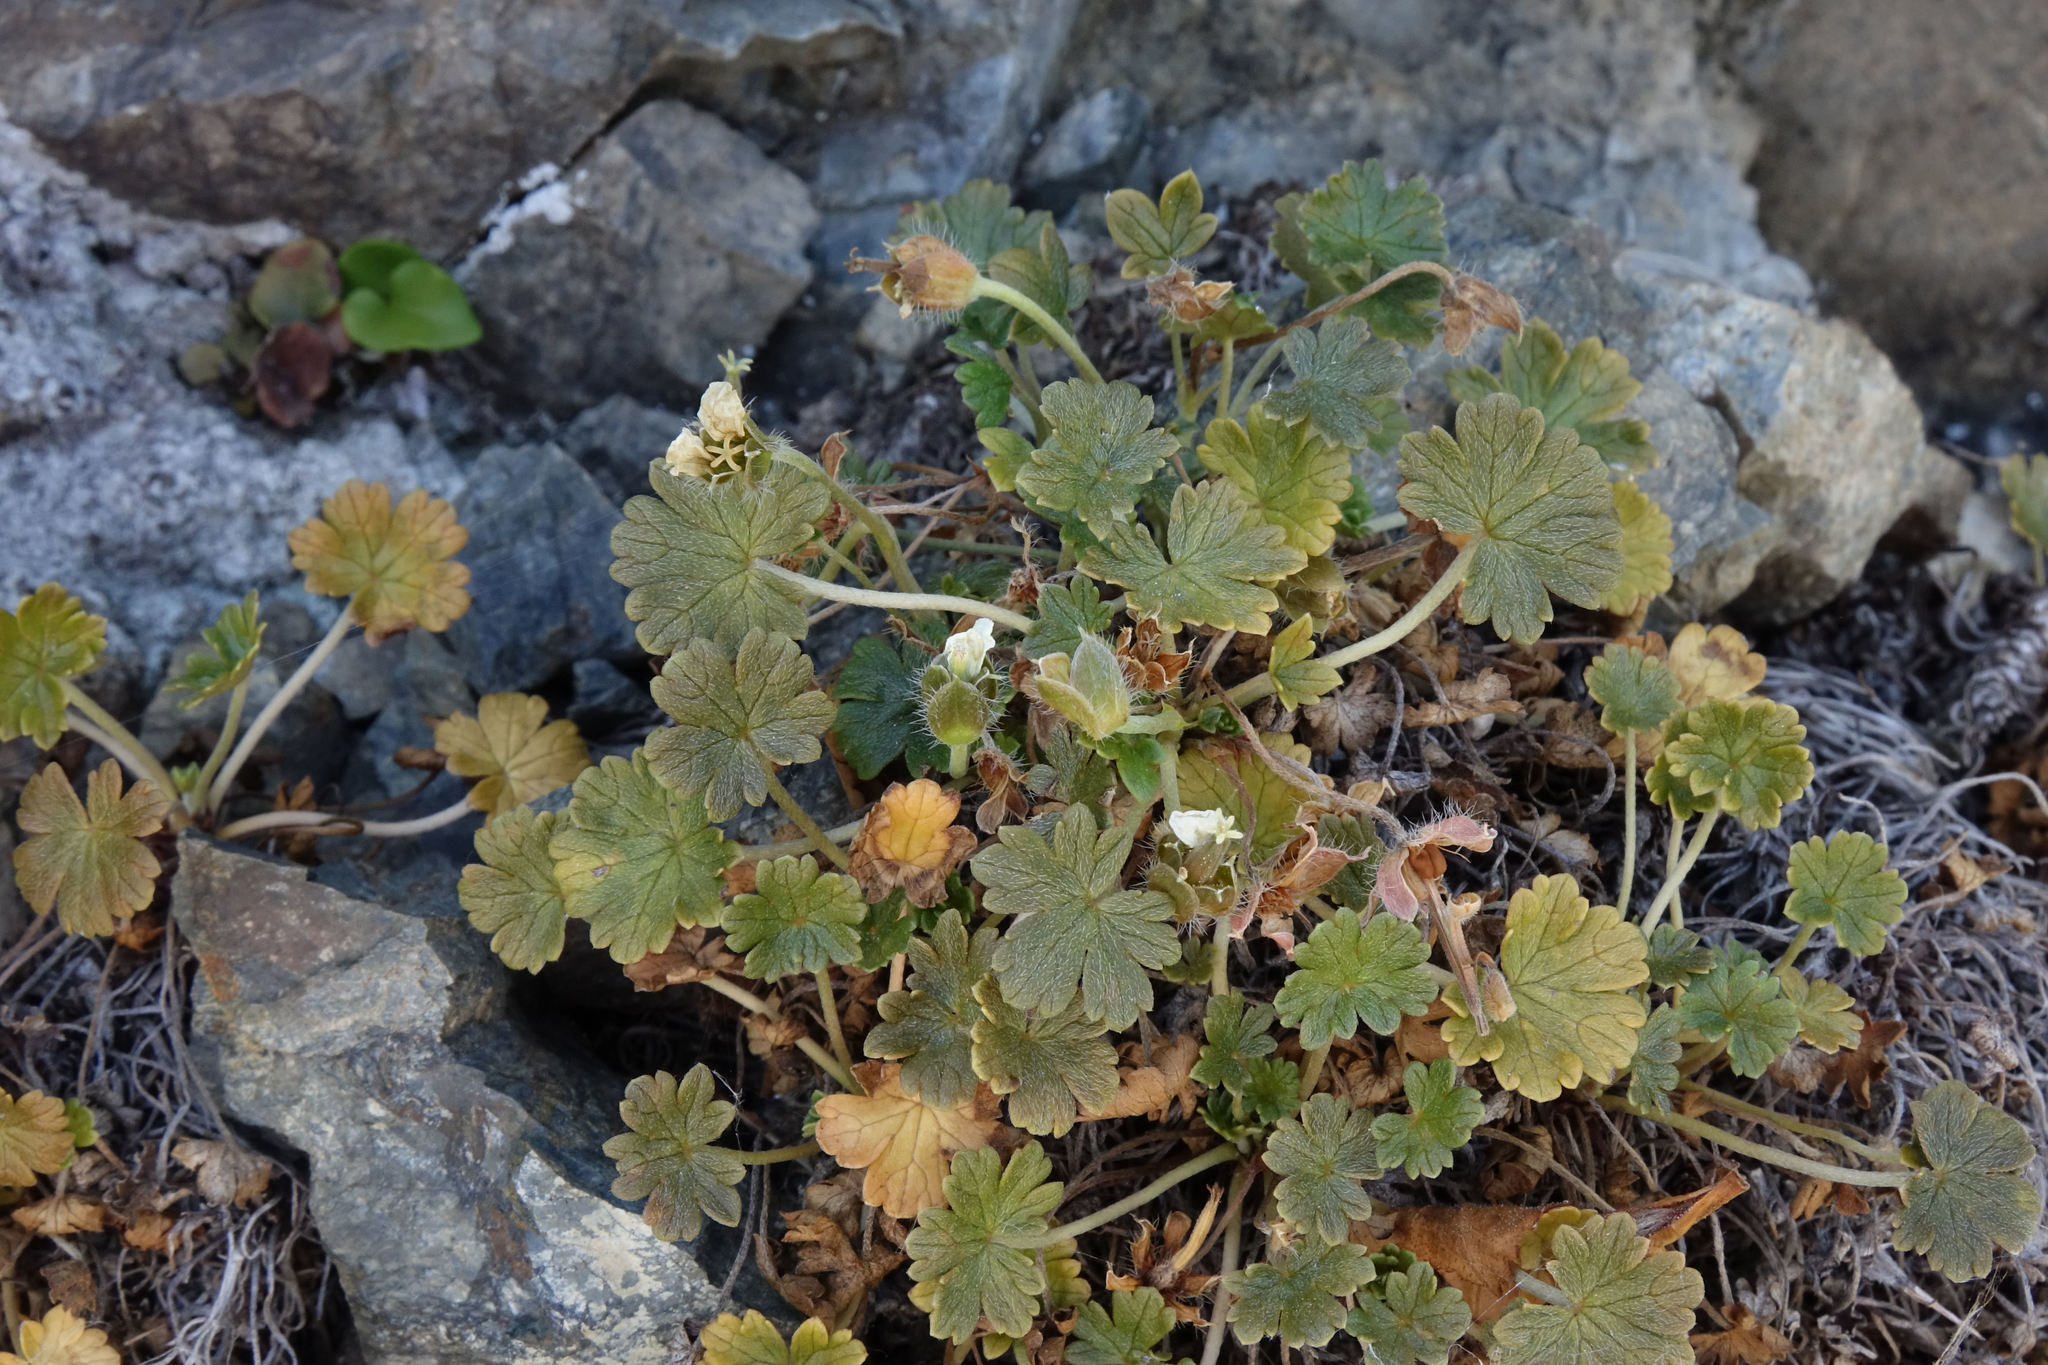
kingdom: Plantae
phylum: Tracheophyta
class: Magnoliopsida
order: Geraniales
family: Geraniaceae
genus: Geranium
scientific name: Geranium brevicaule
